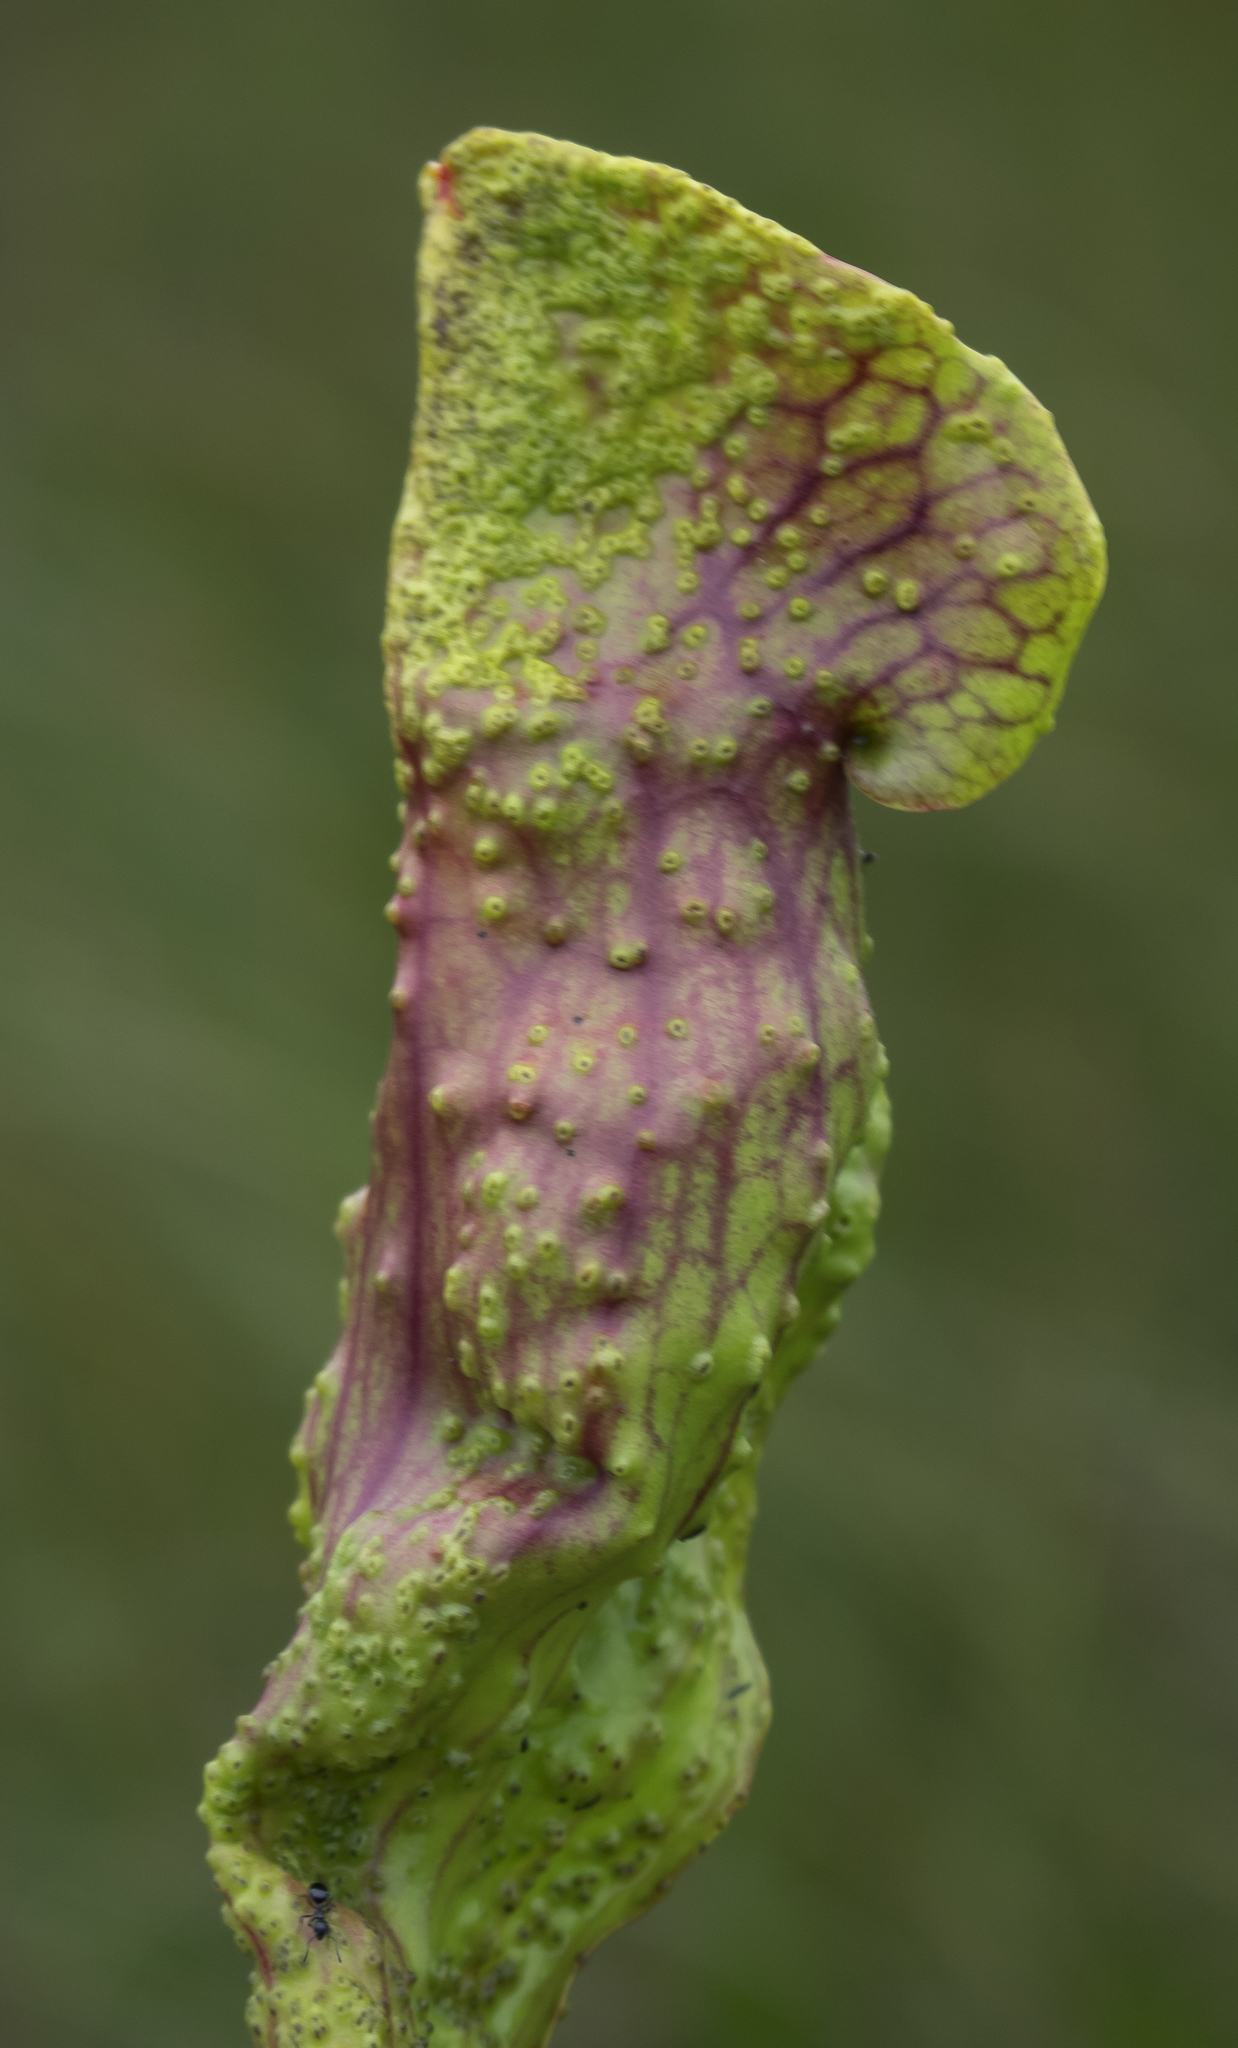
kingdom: Plantae
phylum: Tracheophyta
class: Magnoliopsida
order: Ericales
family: Sarraceniaceae
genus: Sarracenia
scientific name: Sarracenia purpurea
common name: Pitcherplant
